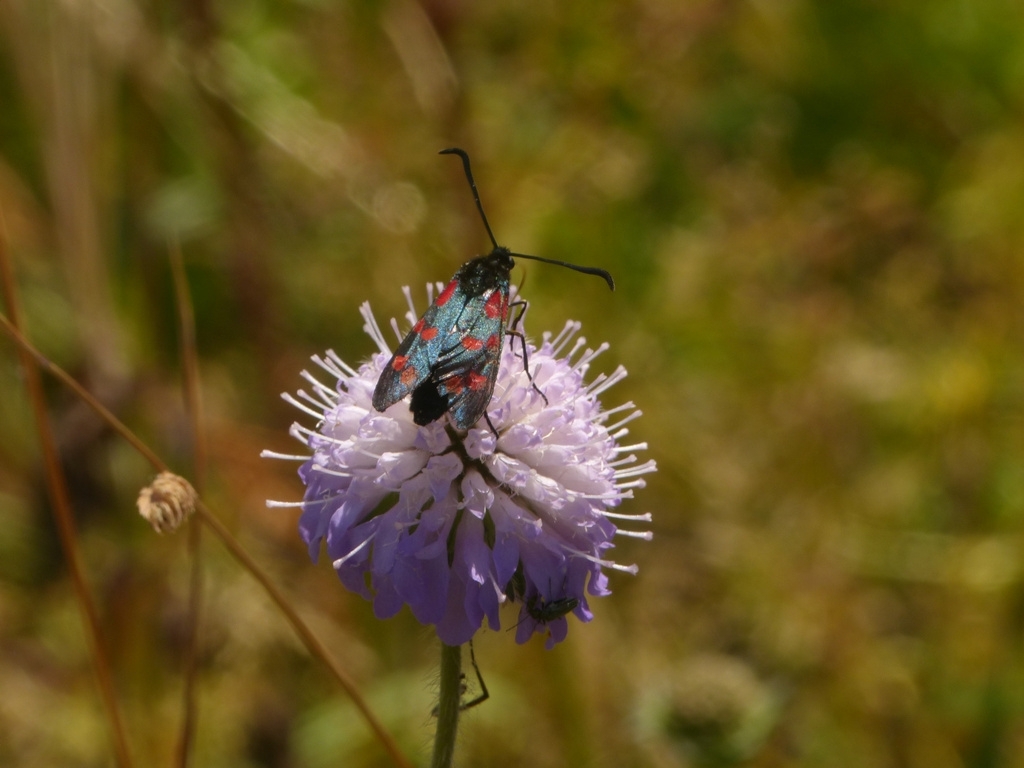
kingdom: Animalia
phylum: Arthropoda
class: Insecta
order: Lepidoptera
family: Zygaenidae
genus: Zygaena
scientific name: Zygaena filipendulae
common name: Six-spot burnet
